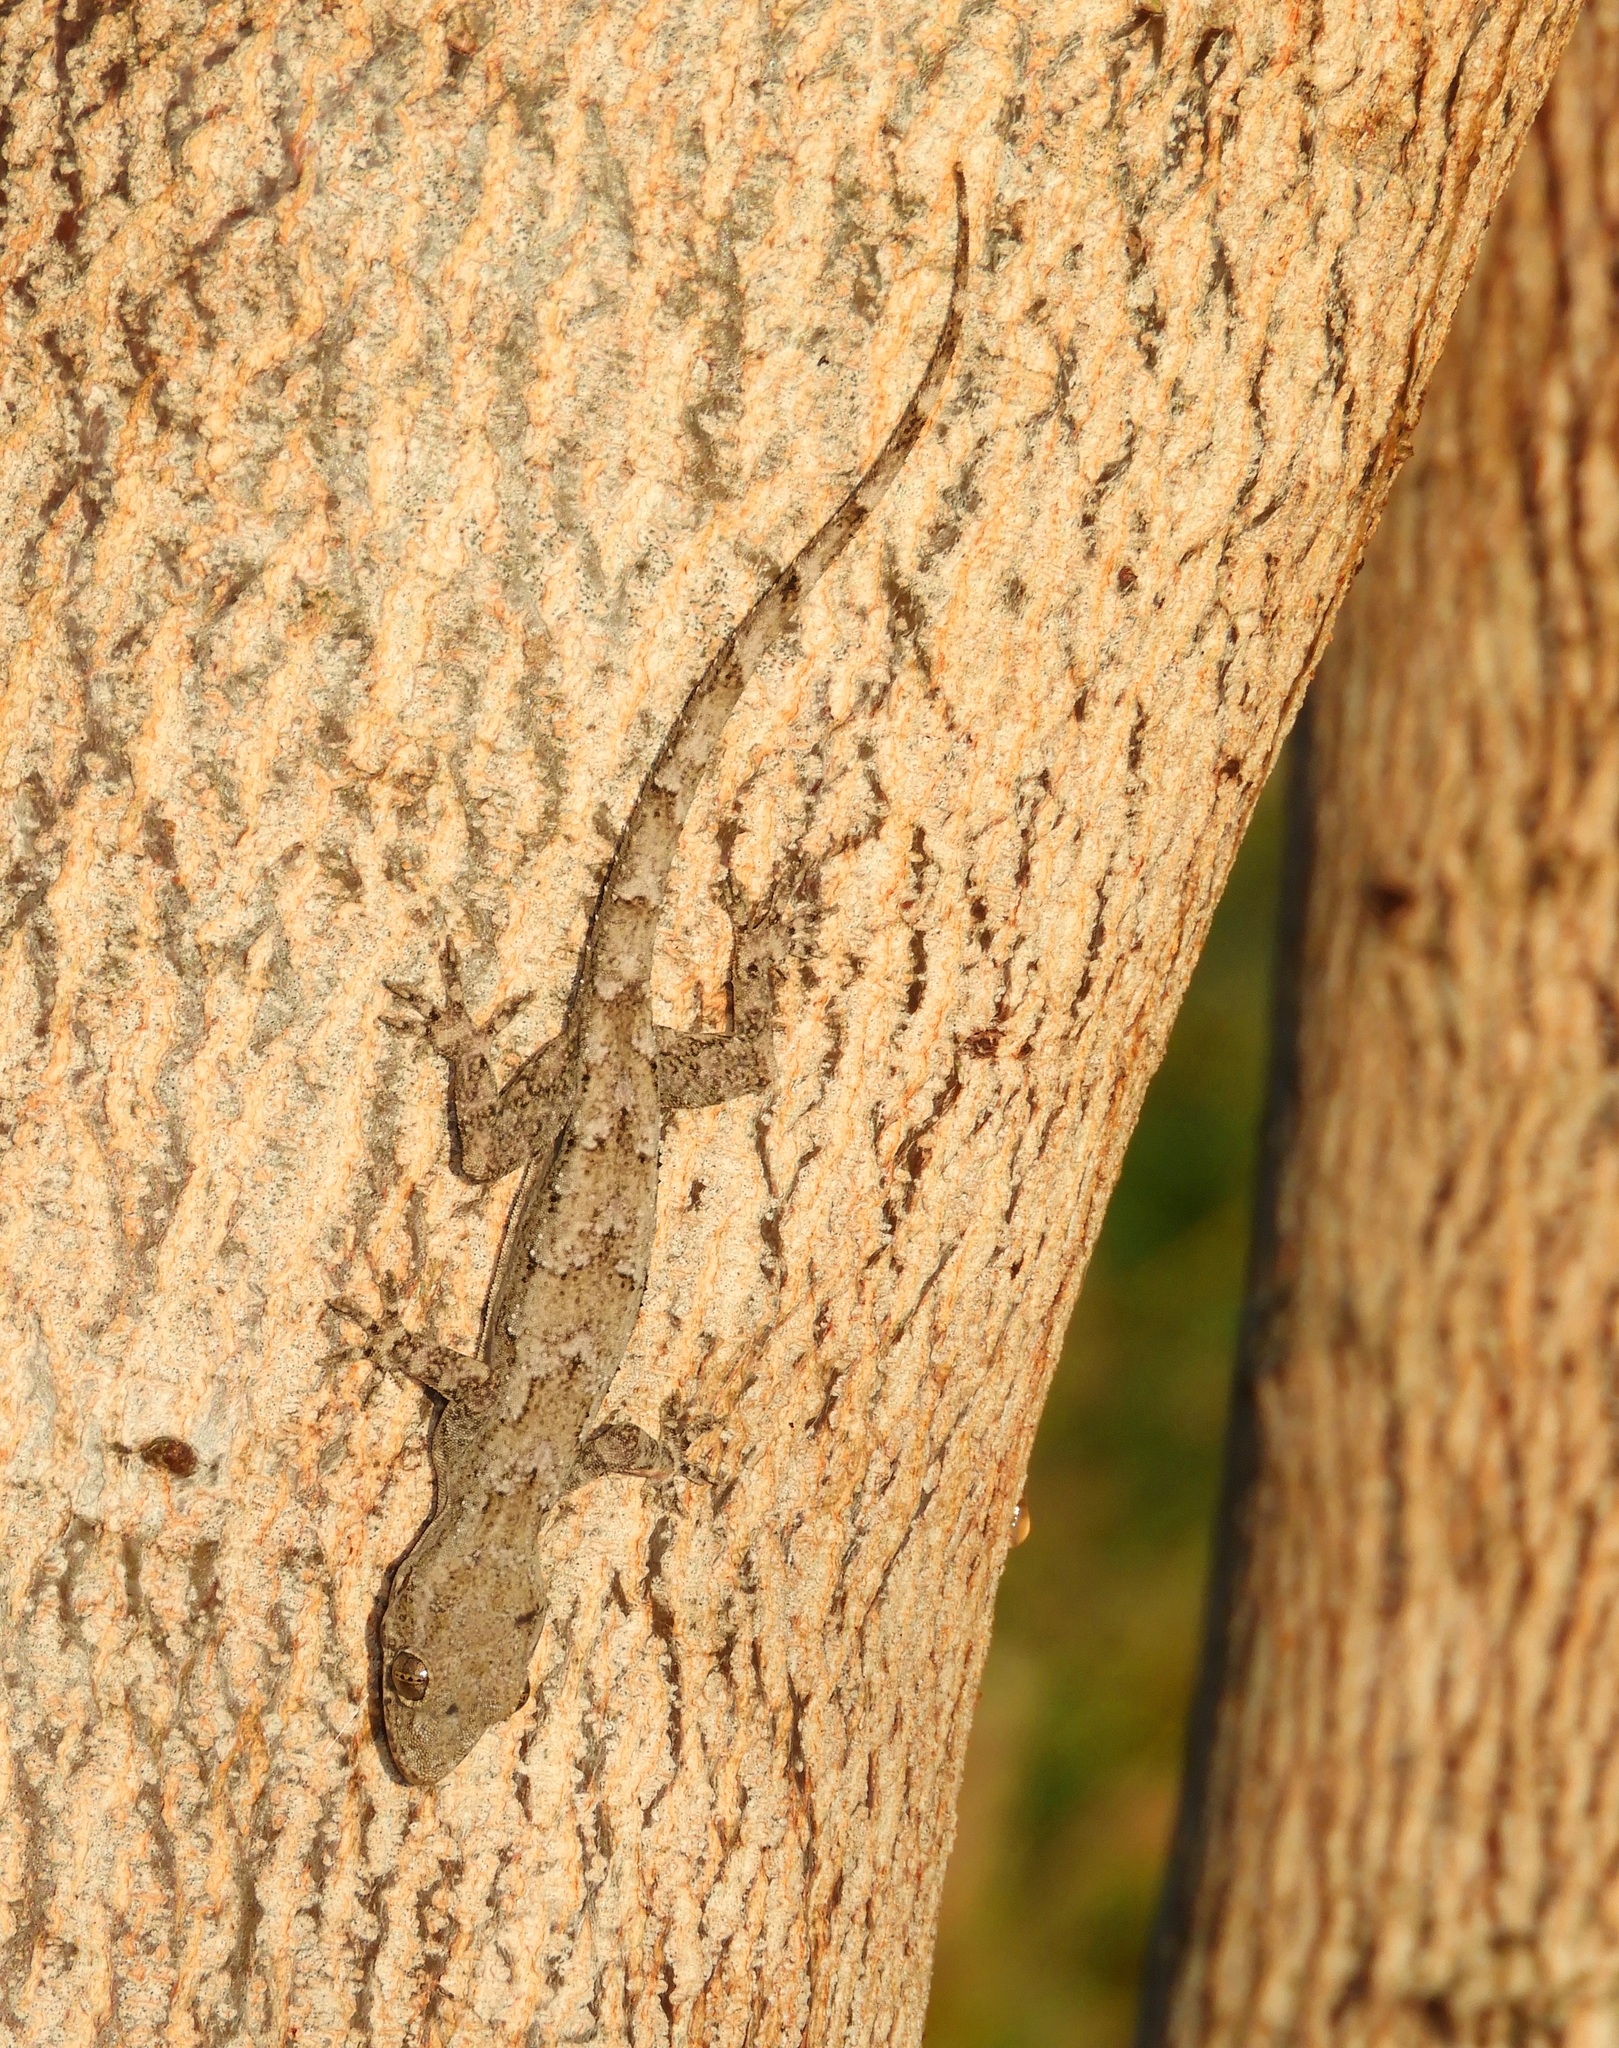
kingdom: Animalia
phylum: Chordata
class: Squamata
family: Gekkonidae
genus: Hemidactylus
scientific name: Hemidactylus platycephalus
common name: Baobab gecko
